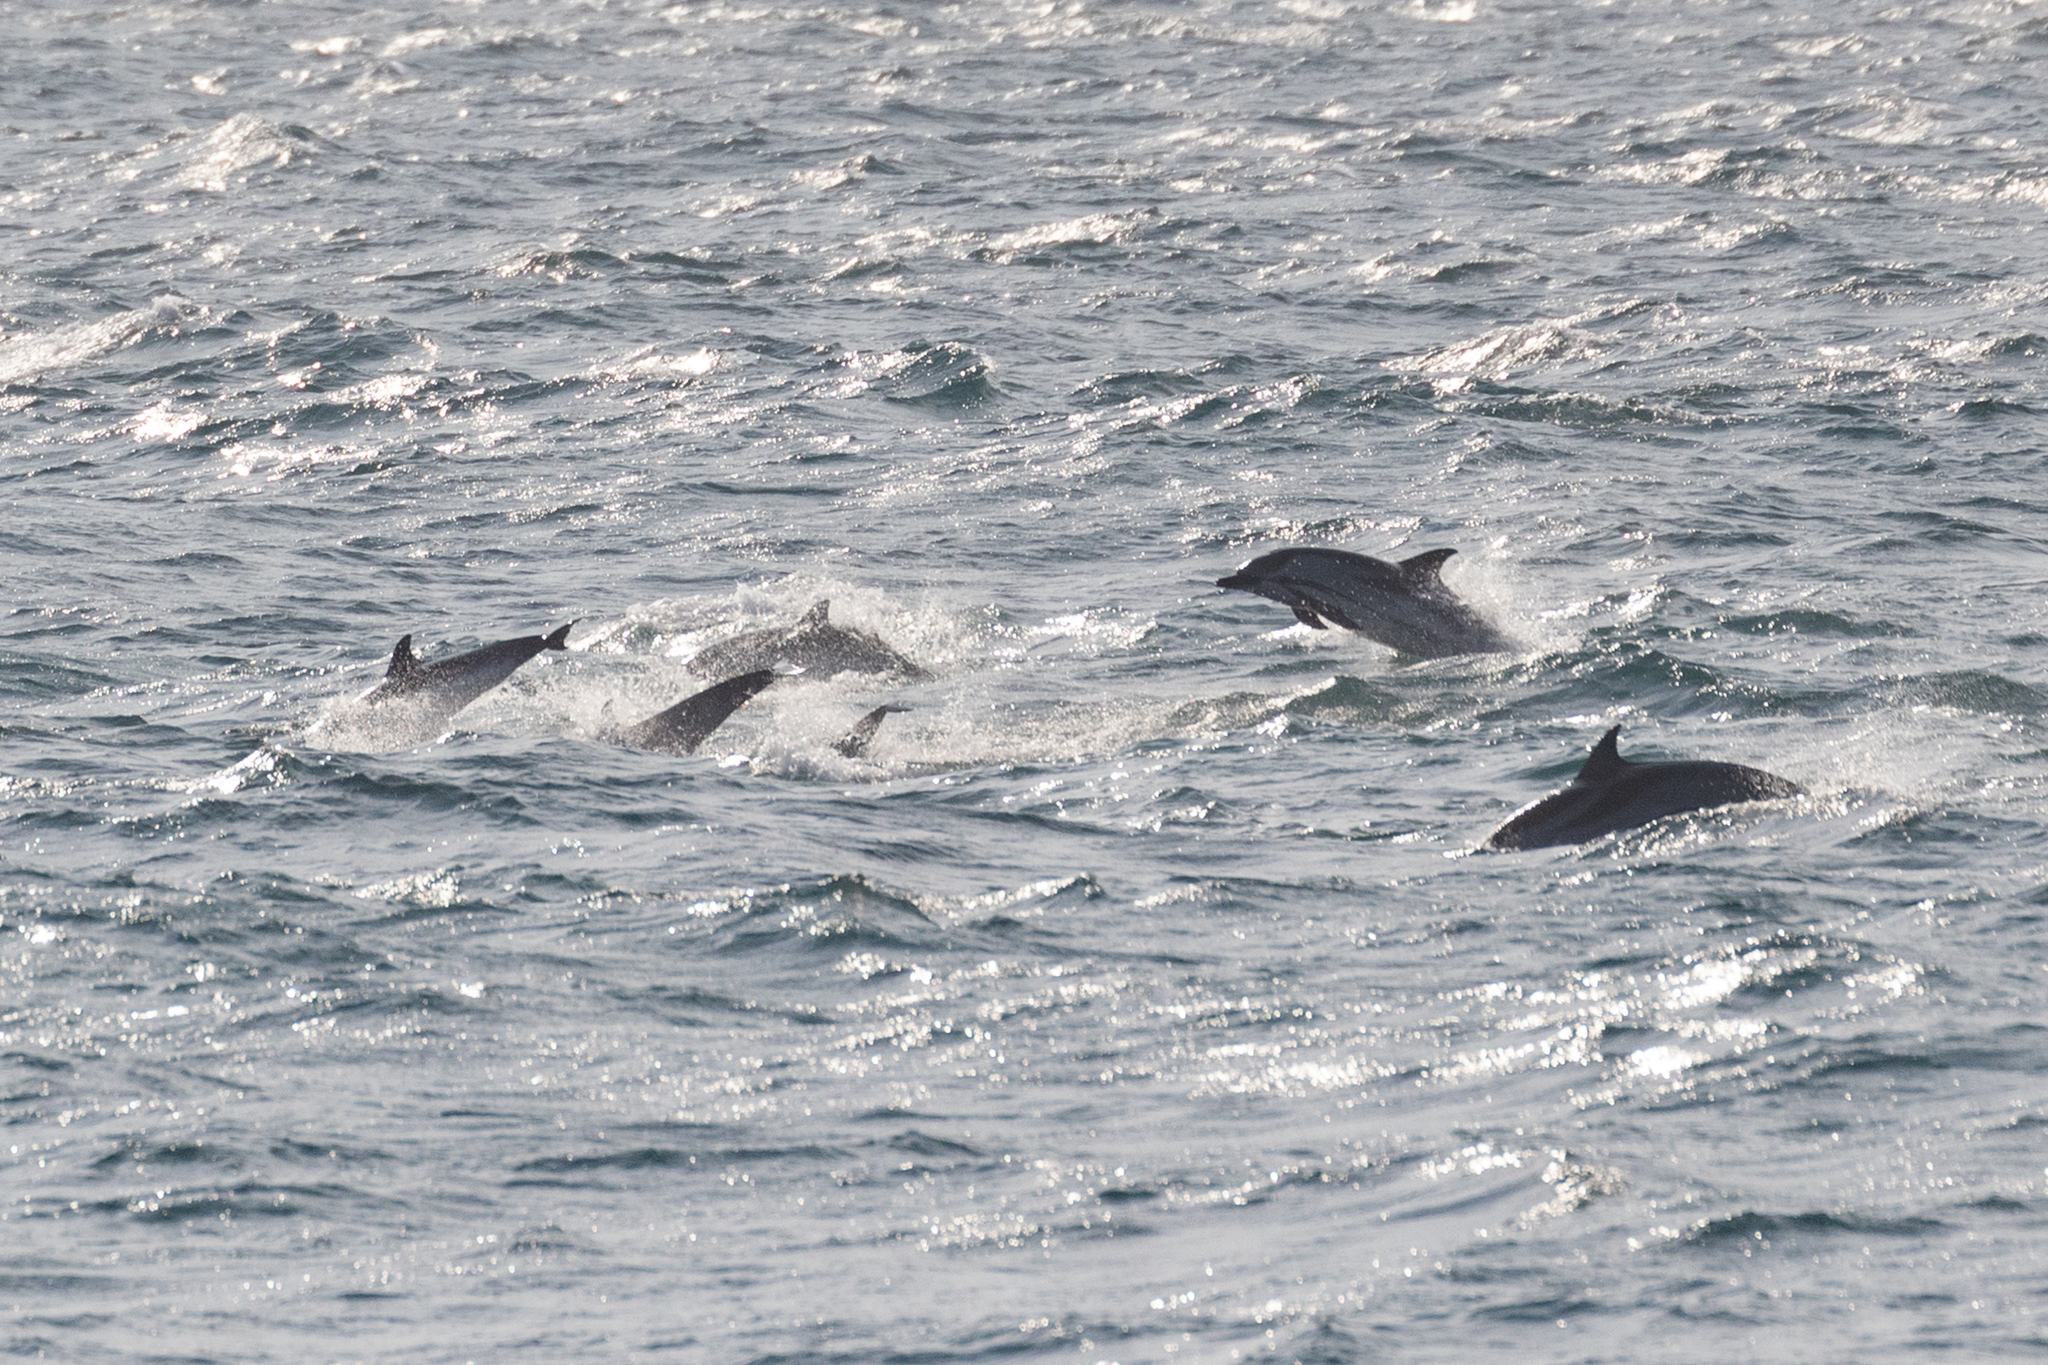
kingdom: Animalia
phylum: Chordata
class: Mammalia
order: Cetacea
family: Delphinidae
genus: Stenella
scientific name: Stenella coeruleoalba
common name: Striped dolphin
